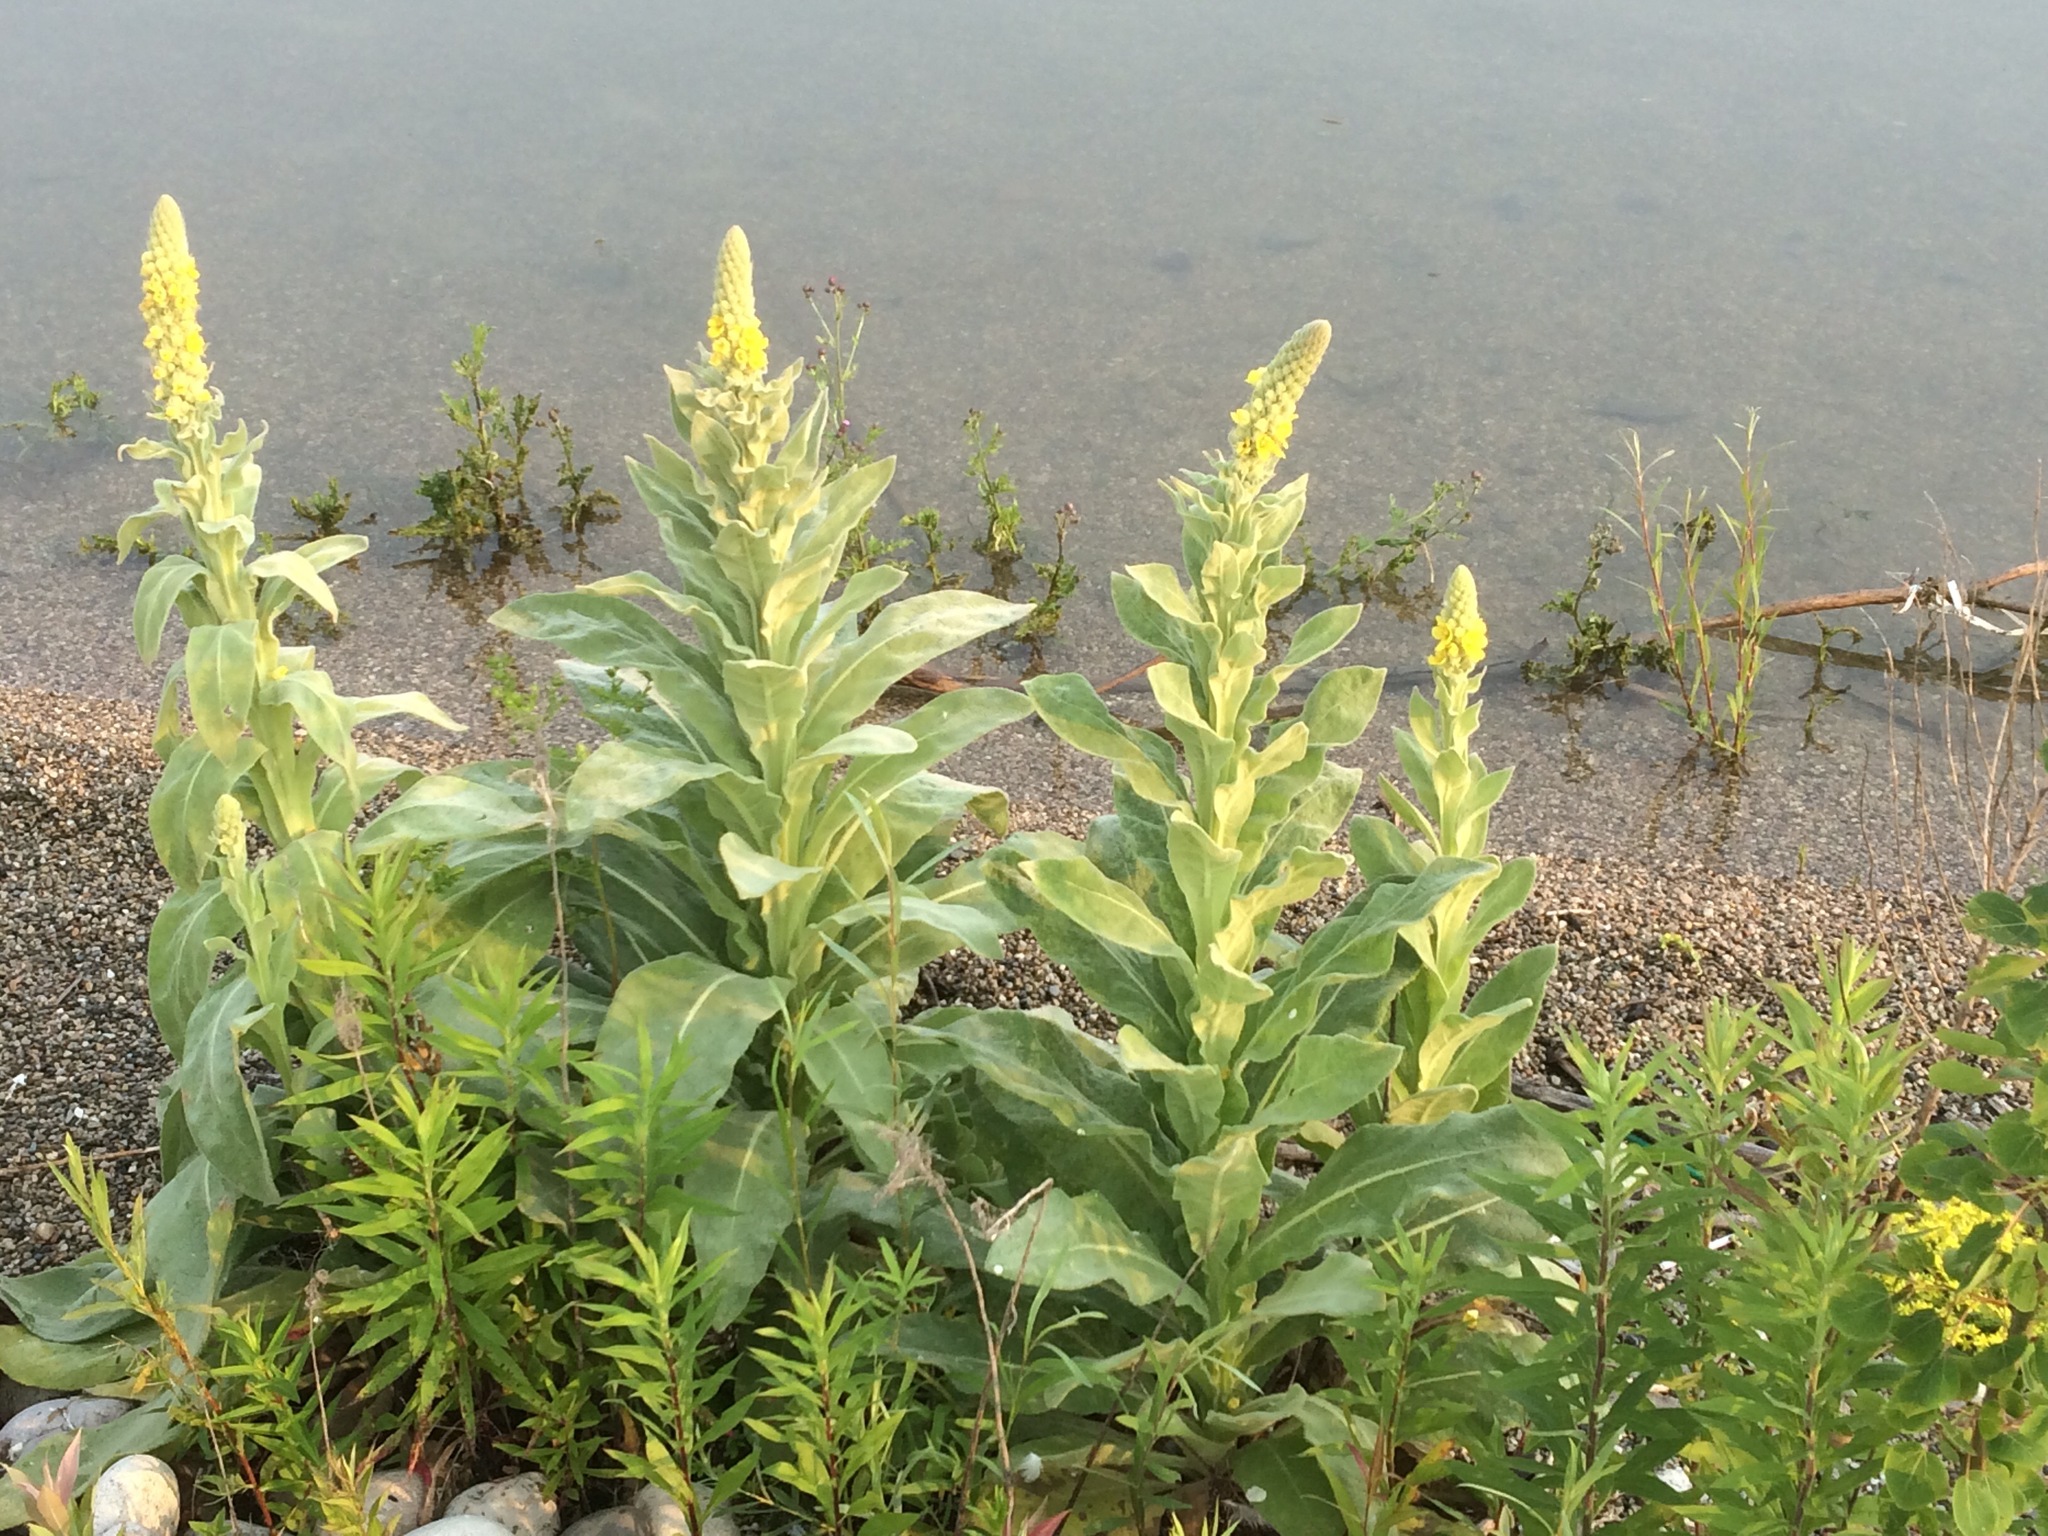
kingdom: Plantae
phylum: Tracheophyta
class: Magnoliopsida
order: Lamiales
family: Scrophulariaceae
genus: Verbascum
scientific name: Verbascum thapsus
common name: Common mullein
